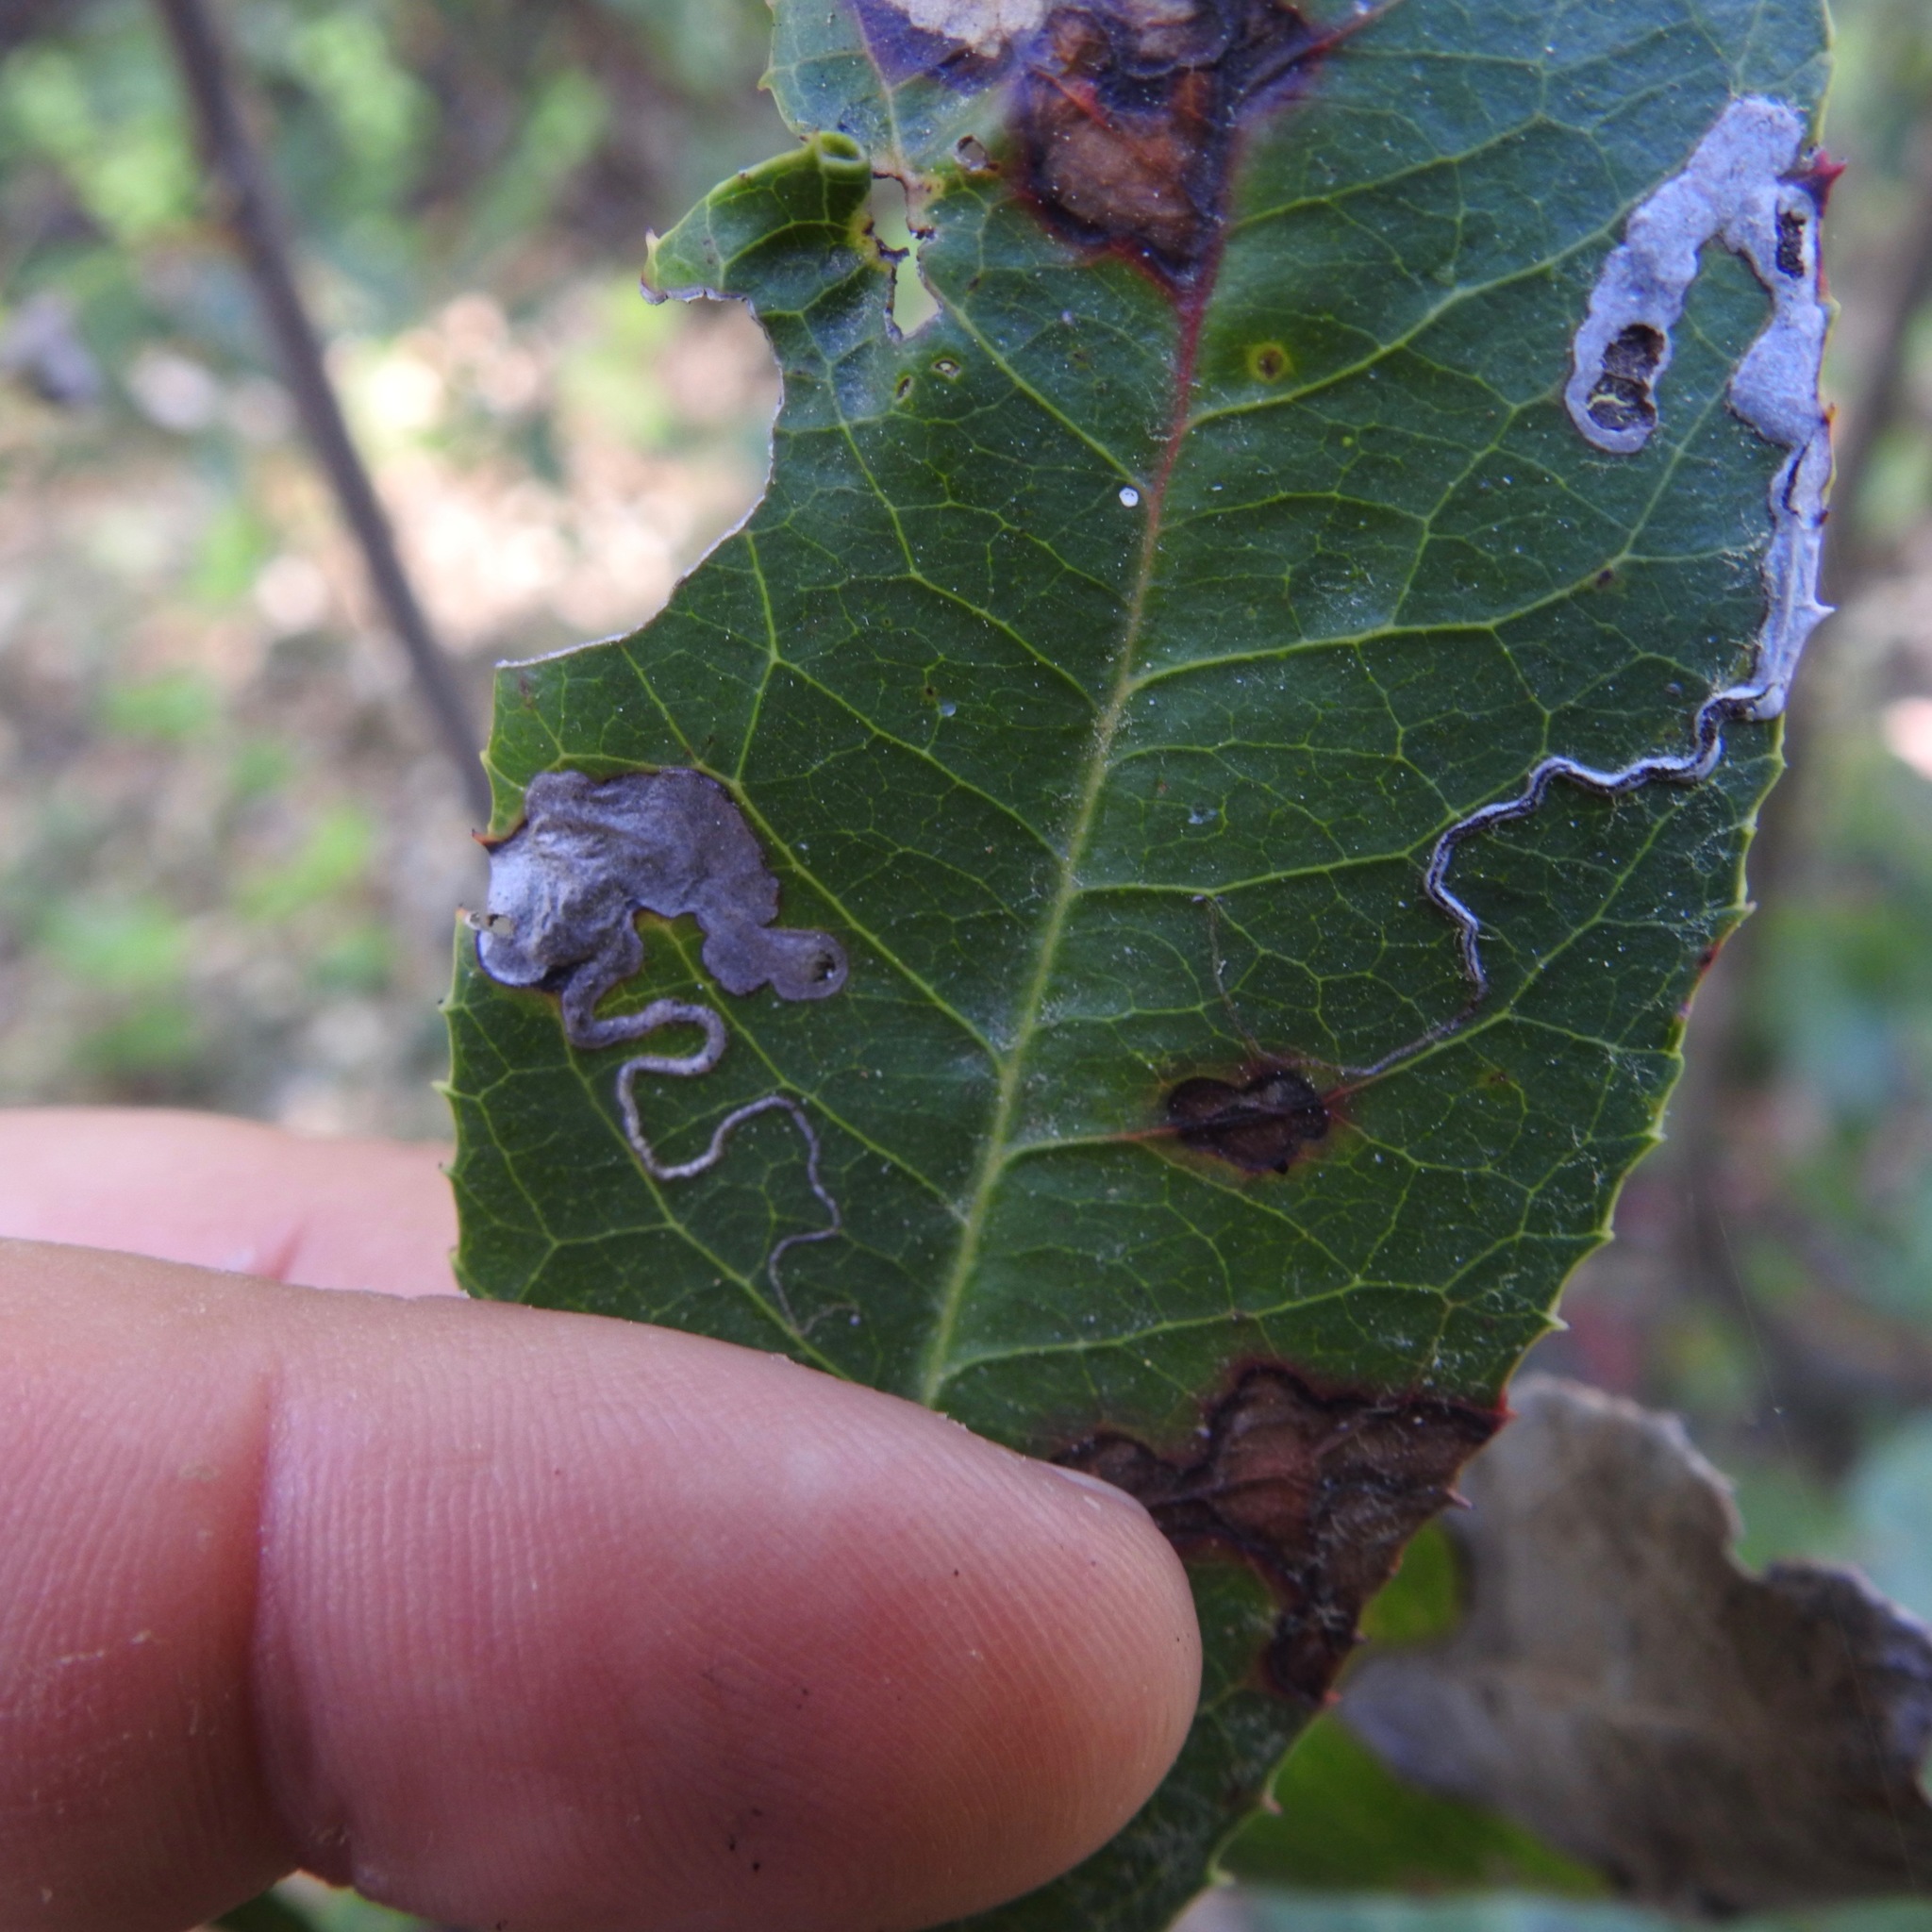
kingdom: Animalia
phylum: Arthropoda
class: Insecta
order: Lepidoptera
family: Nepticulidae
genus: Stigmella
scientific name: Stigmella heteromelis
